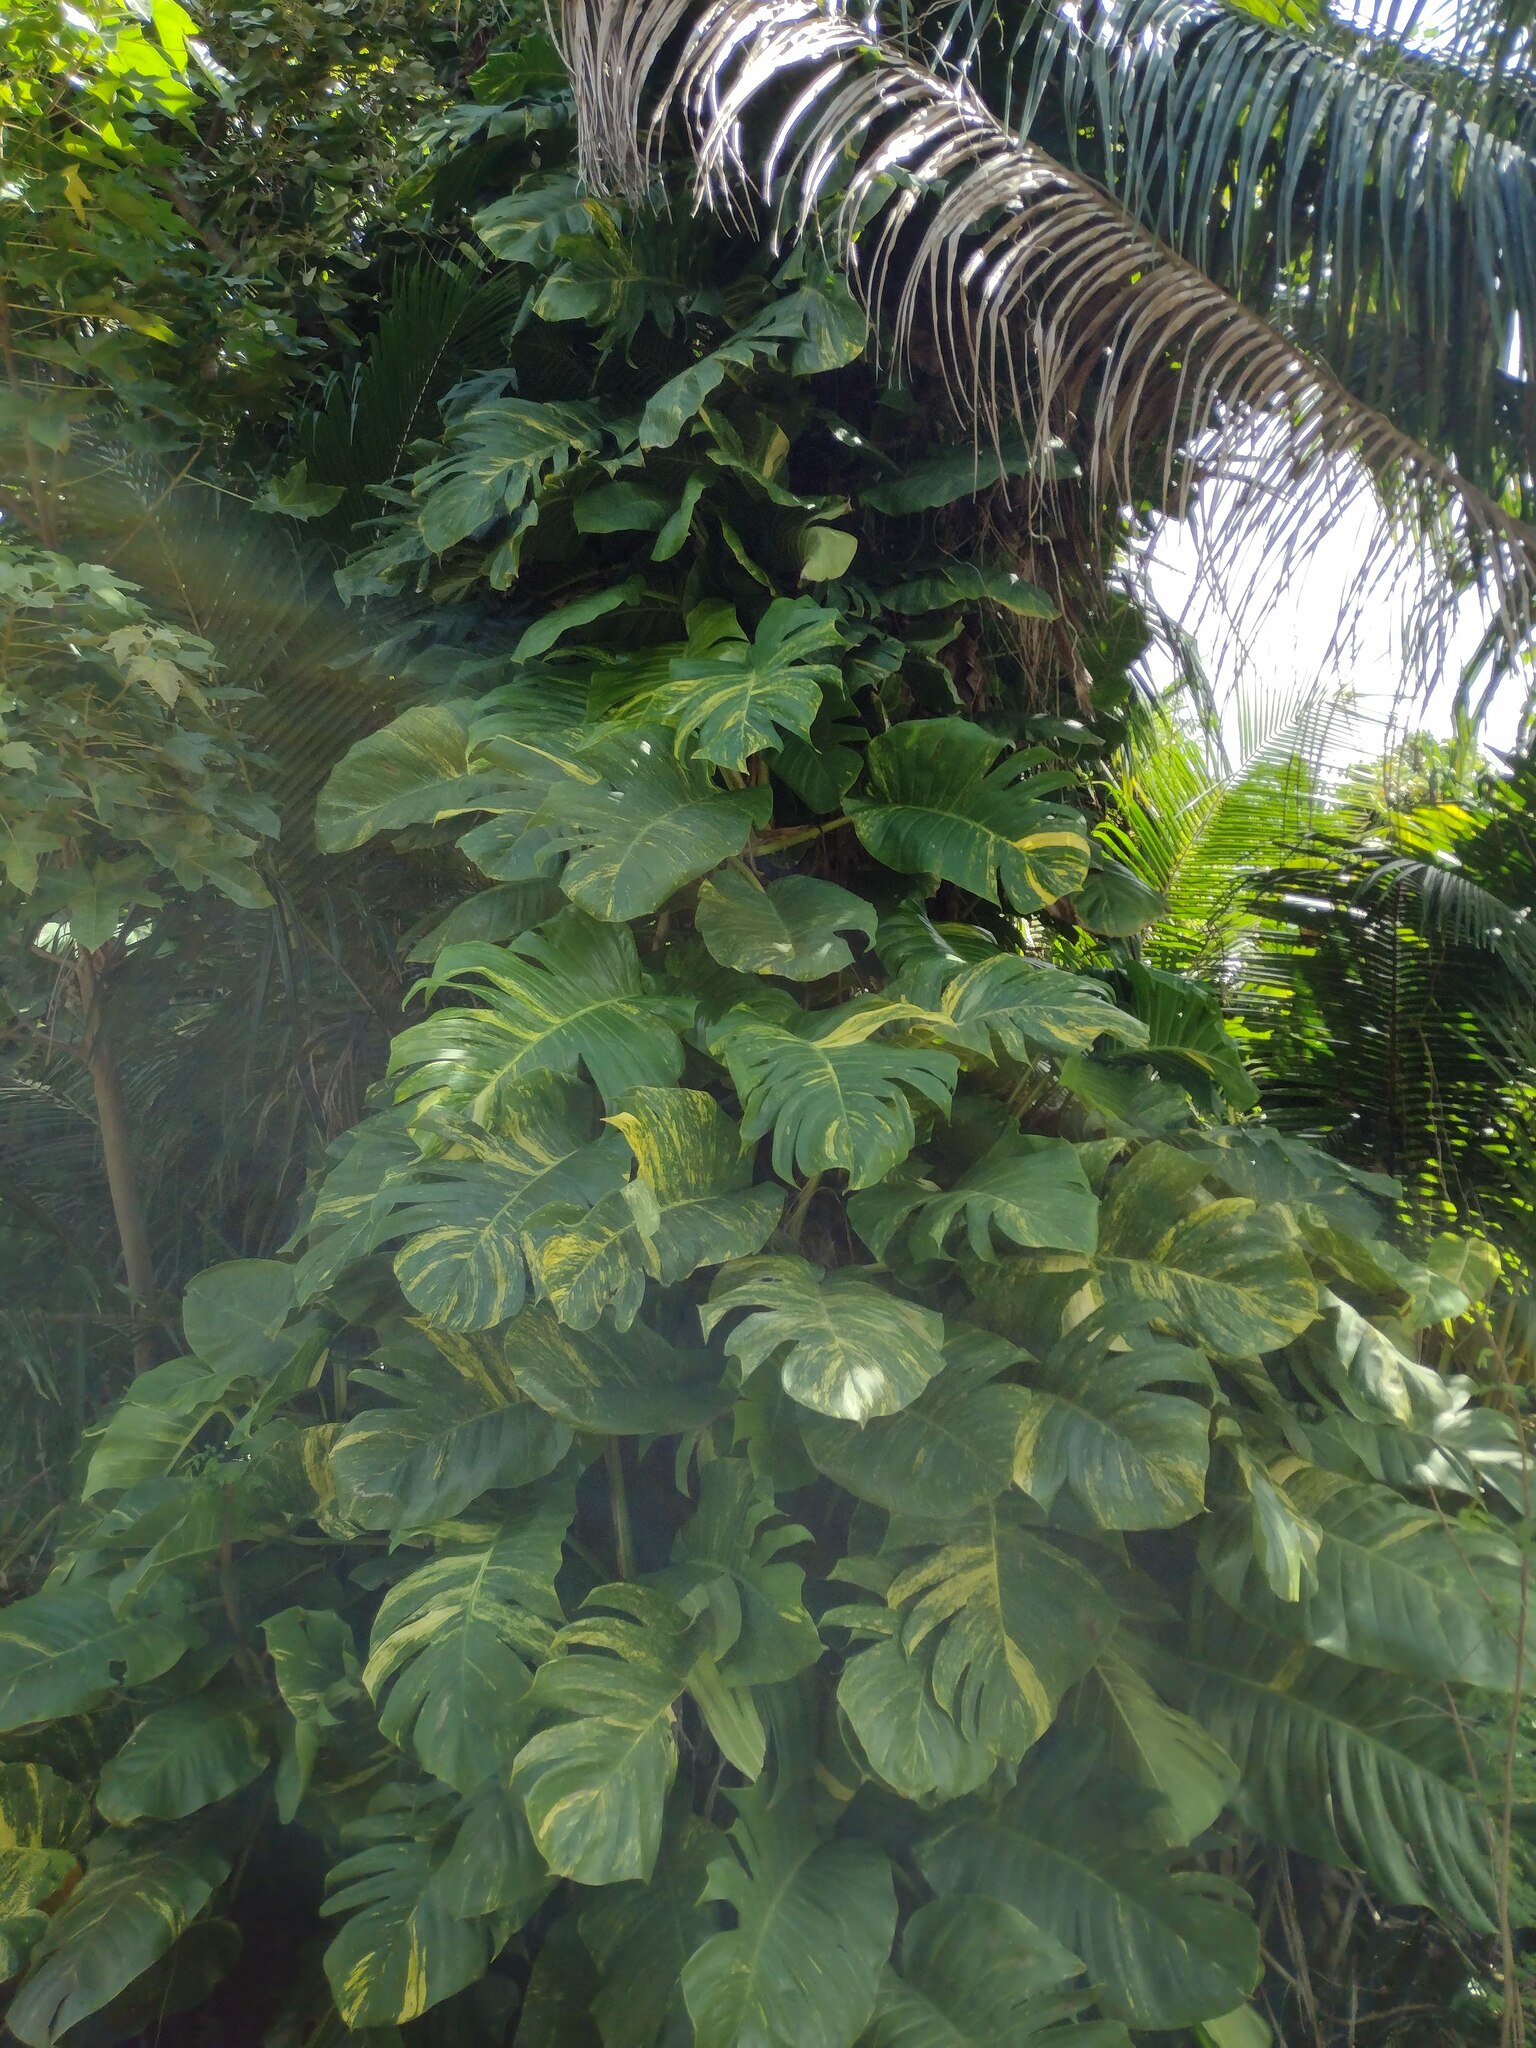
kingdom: Plantae
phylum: Tracheophyta
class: Liliopsida
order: Alismatales
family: Araceae
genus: Epipremnum
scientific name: Epipremnum aureum
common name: Golden hunter's-robe
